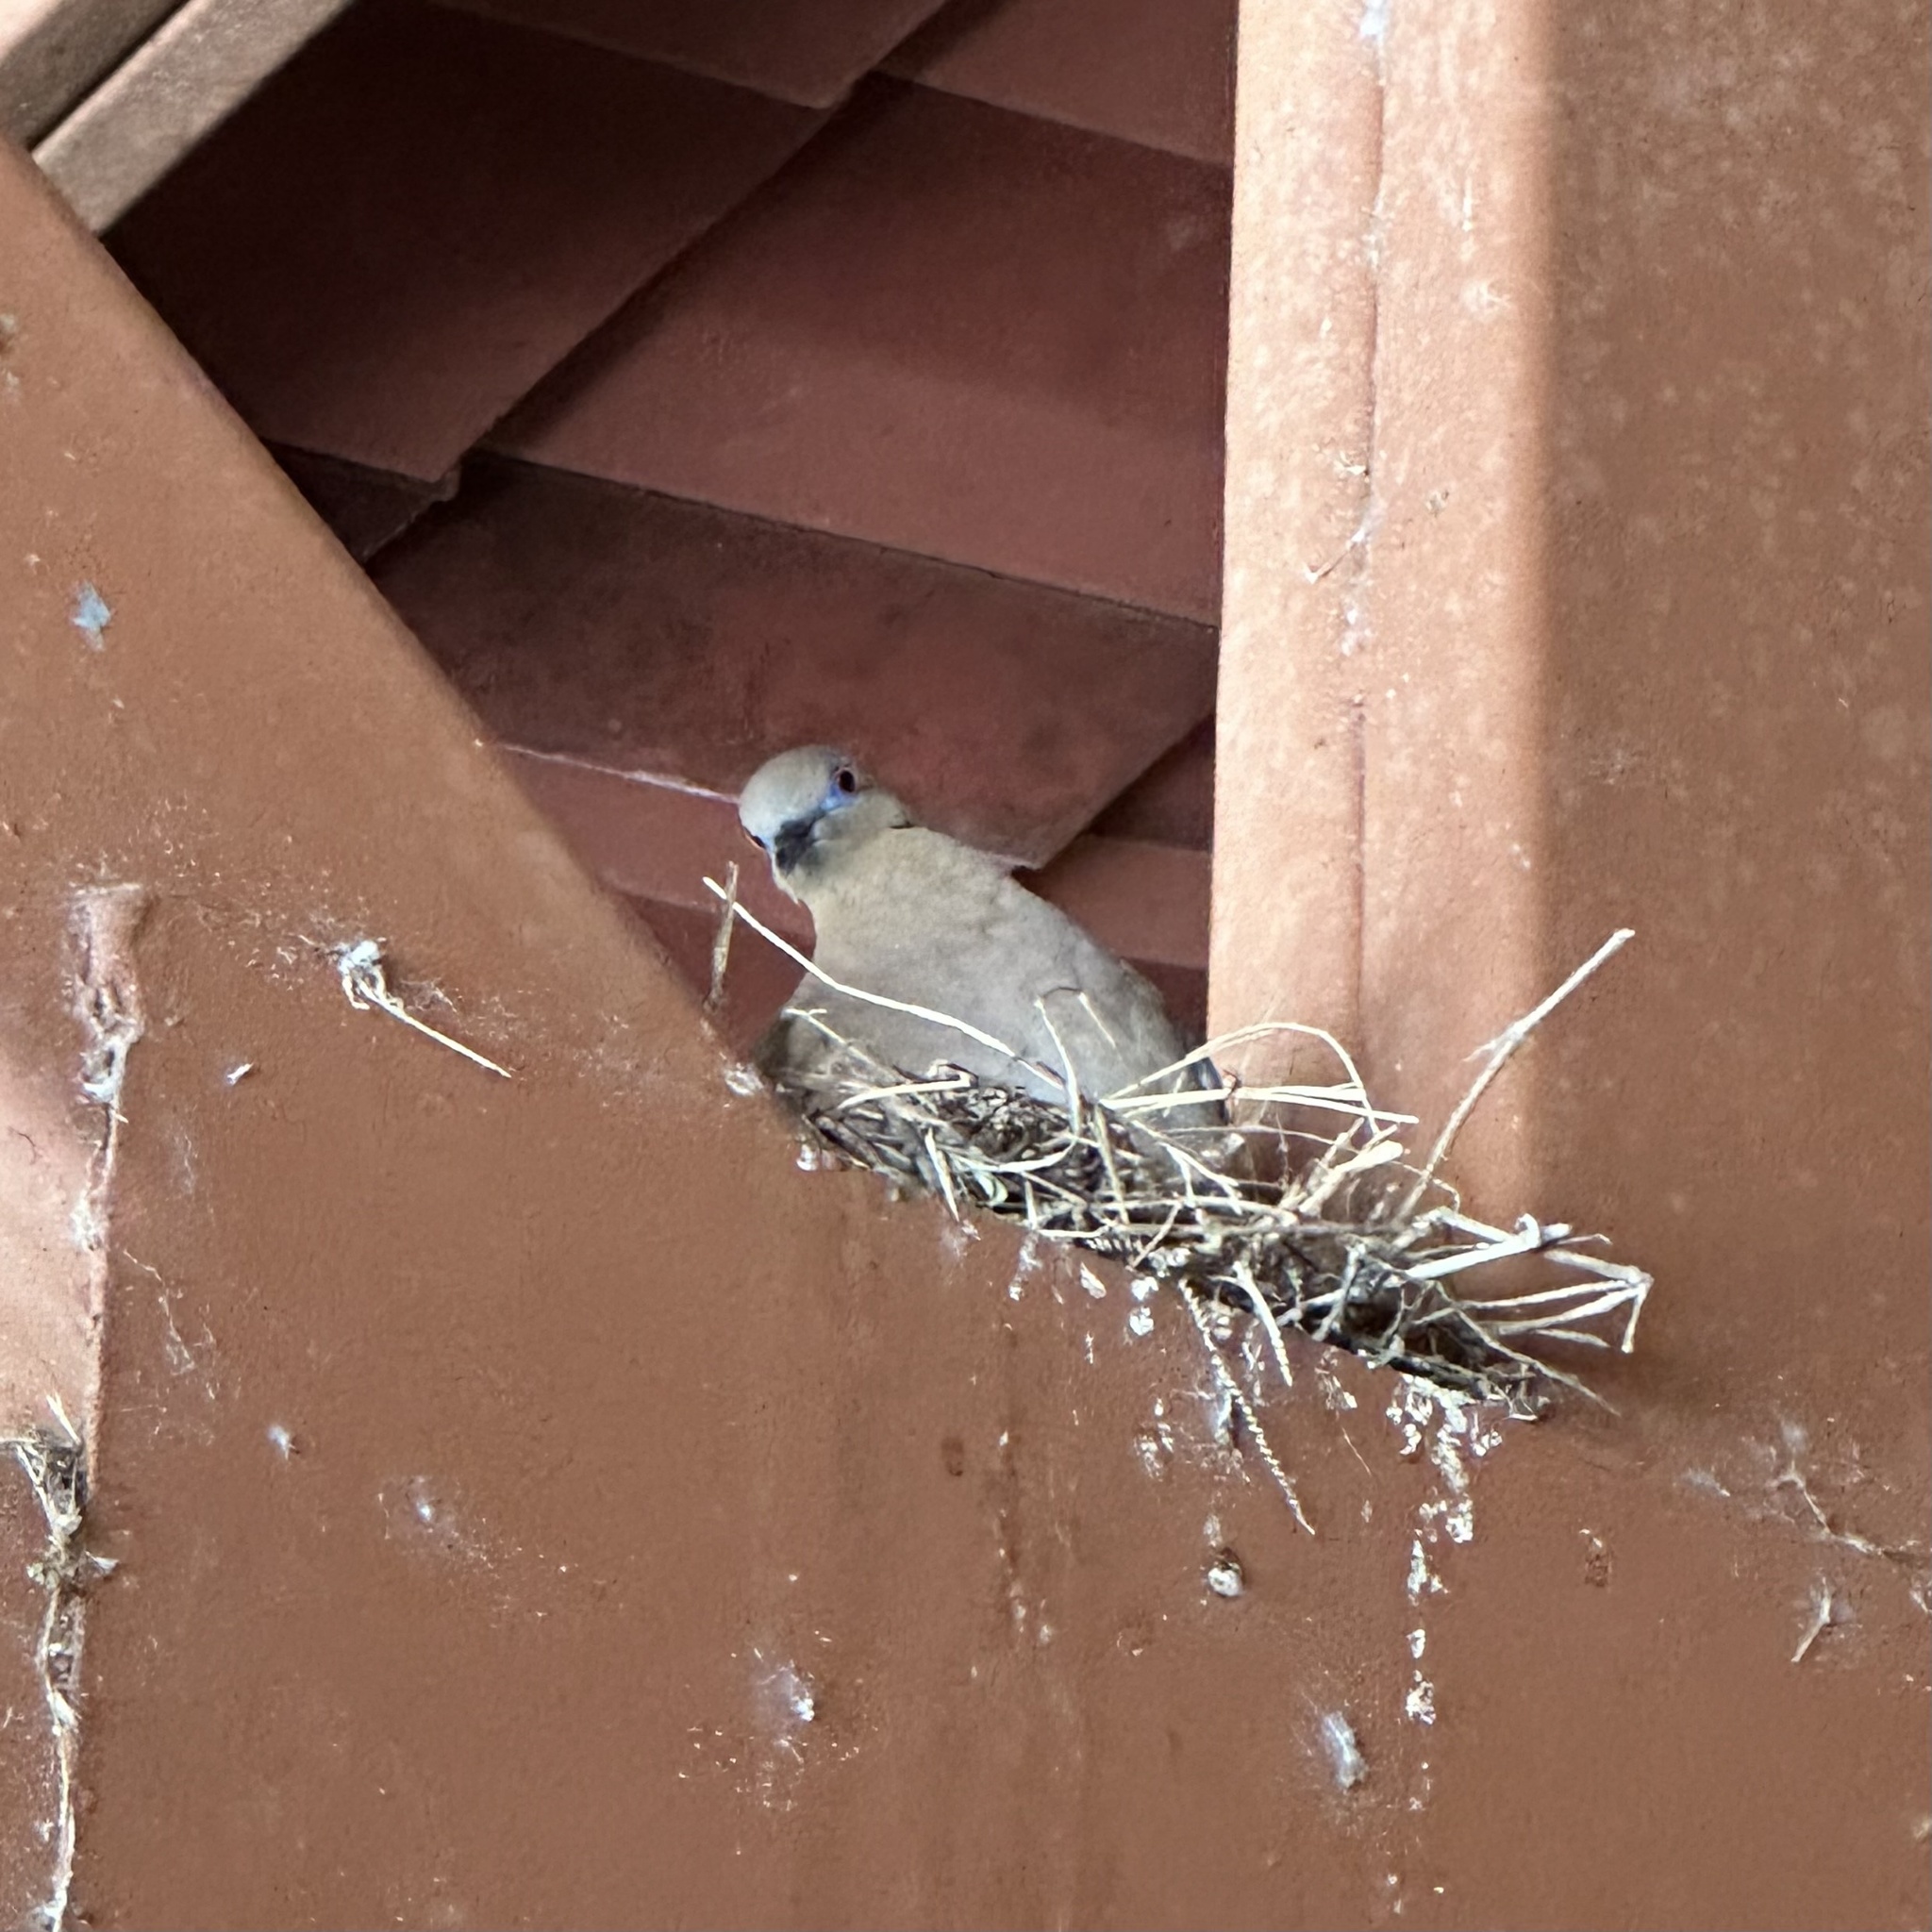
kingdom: Animalia
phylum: Chordata
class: Aves
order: Columbiformes
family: Columbidae
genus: Zenaida
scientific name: Zenaida asiatica
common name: White-winged dove
